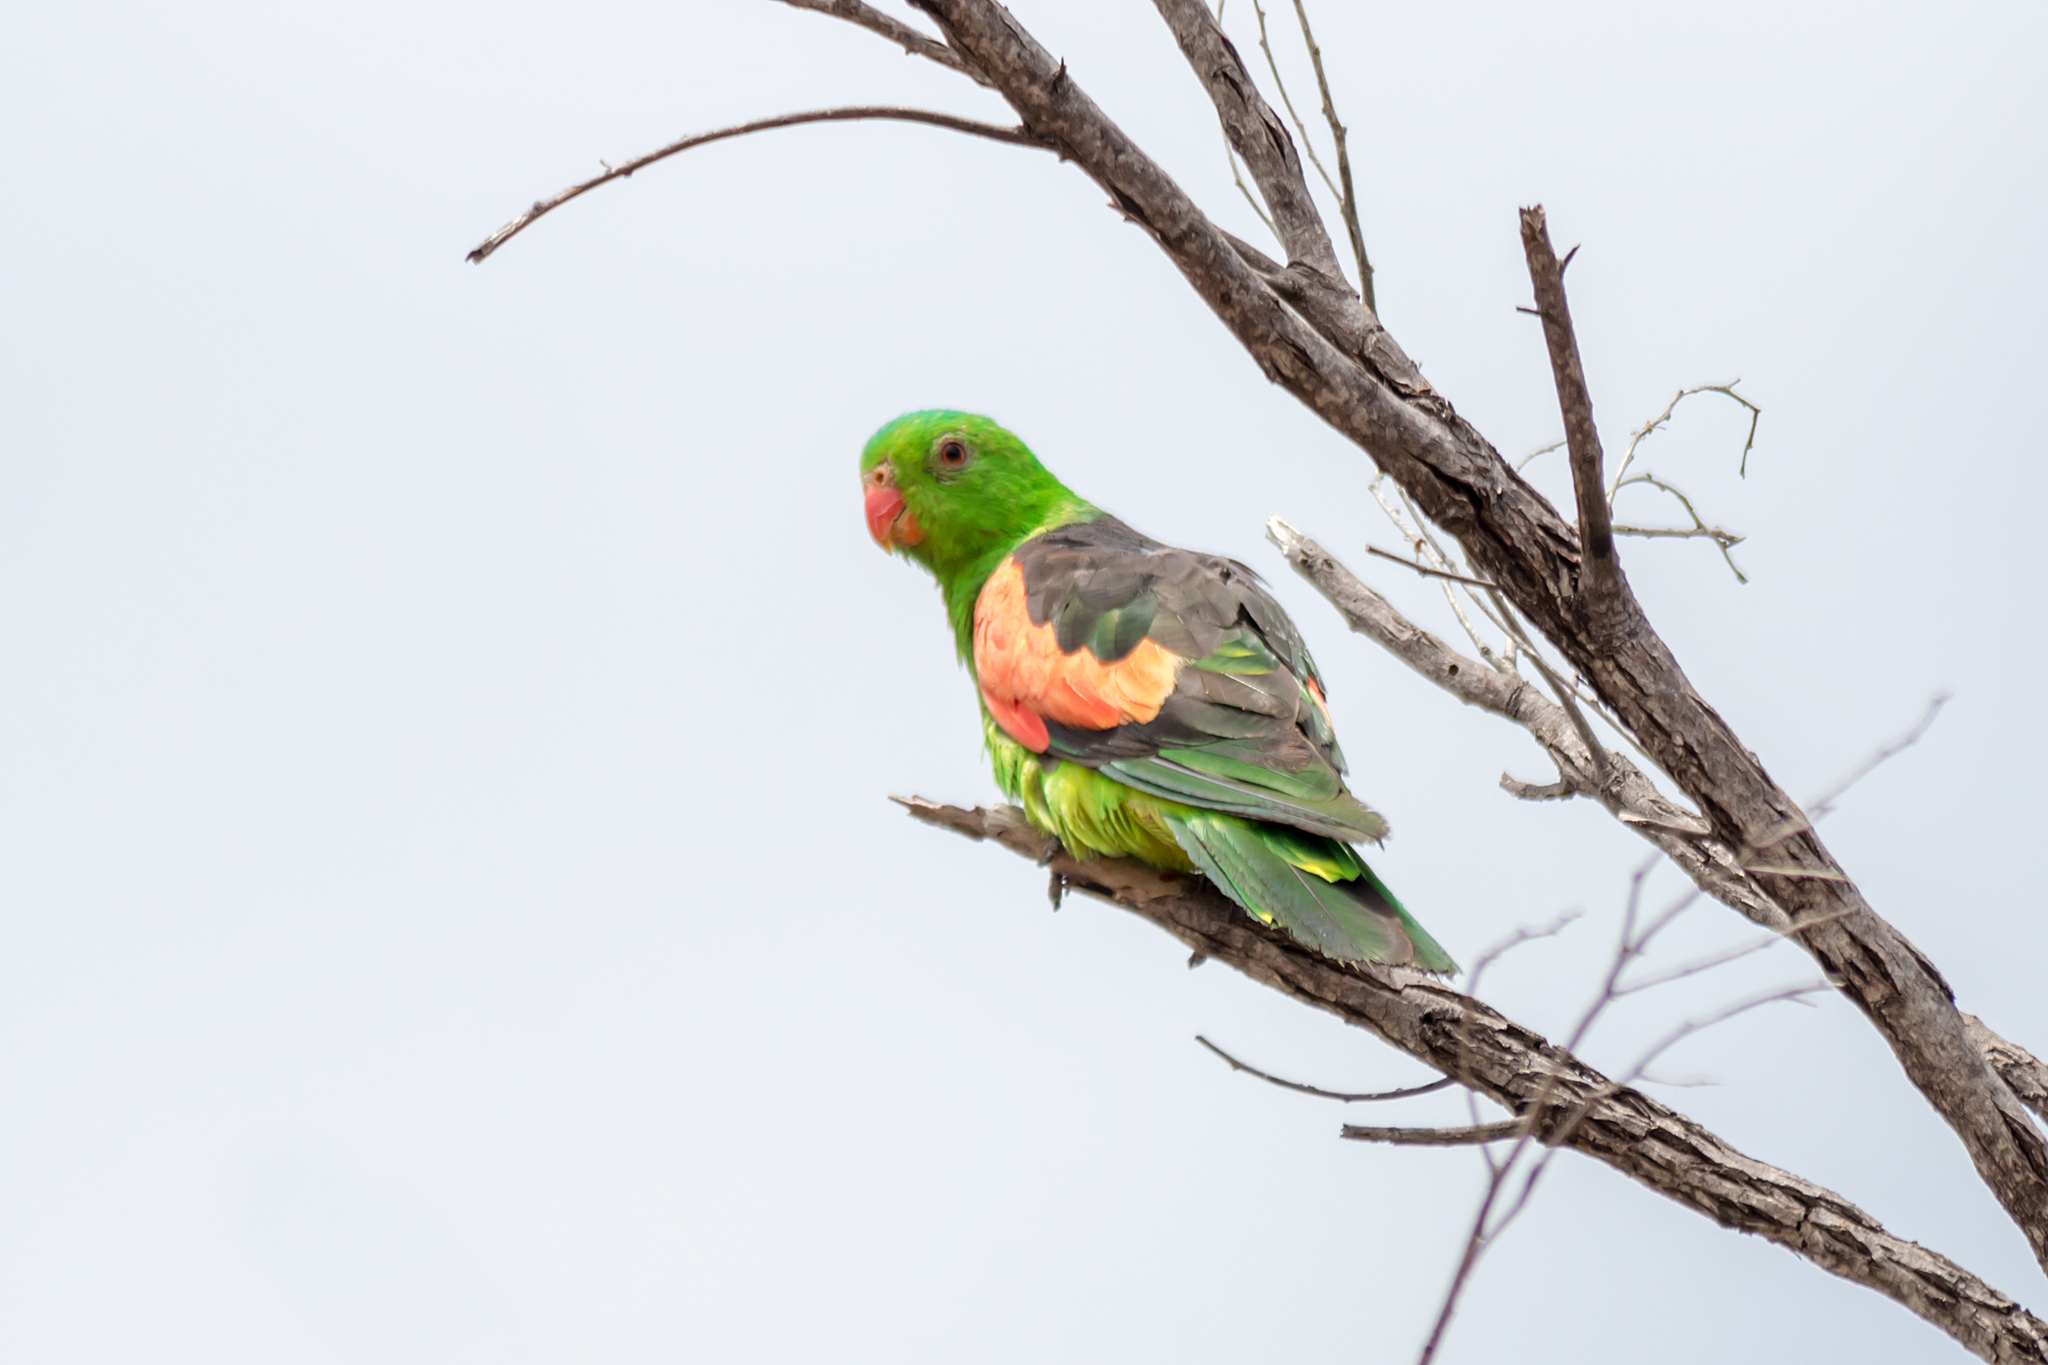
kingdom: Animalia
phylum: Chordata
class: Aves
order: Psittaciformes
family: Psittacidae
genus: Aprosmictus
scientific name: Aprosmictus erythropterus
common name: Red-winged parrot
